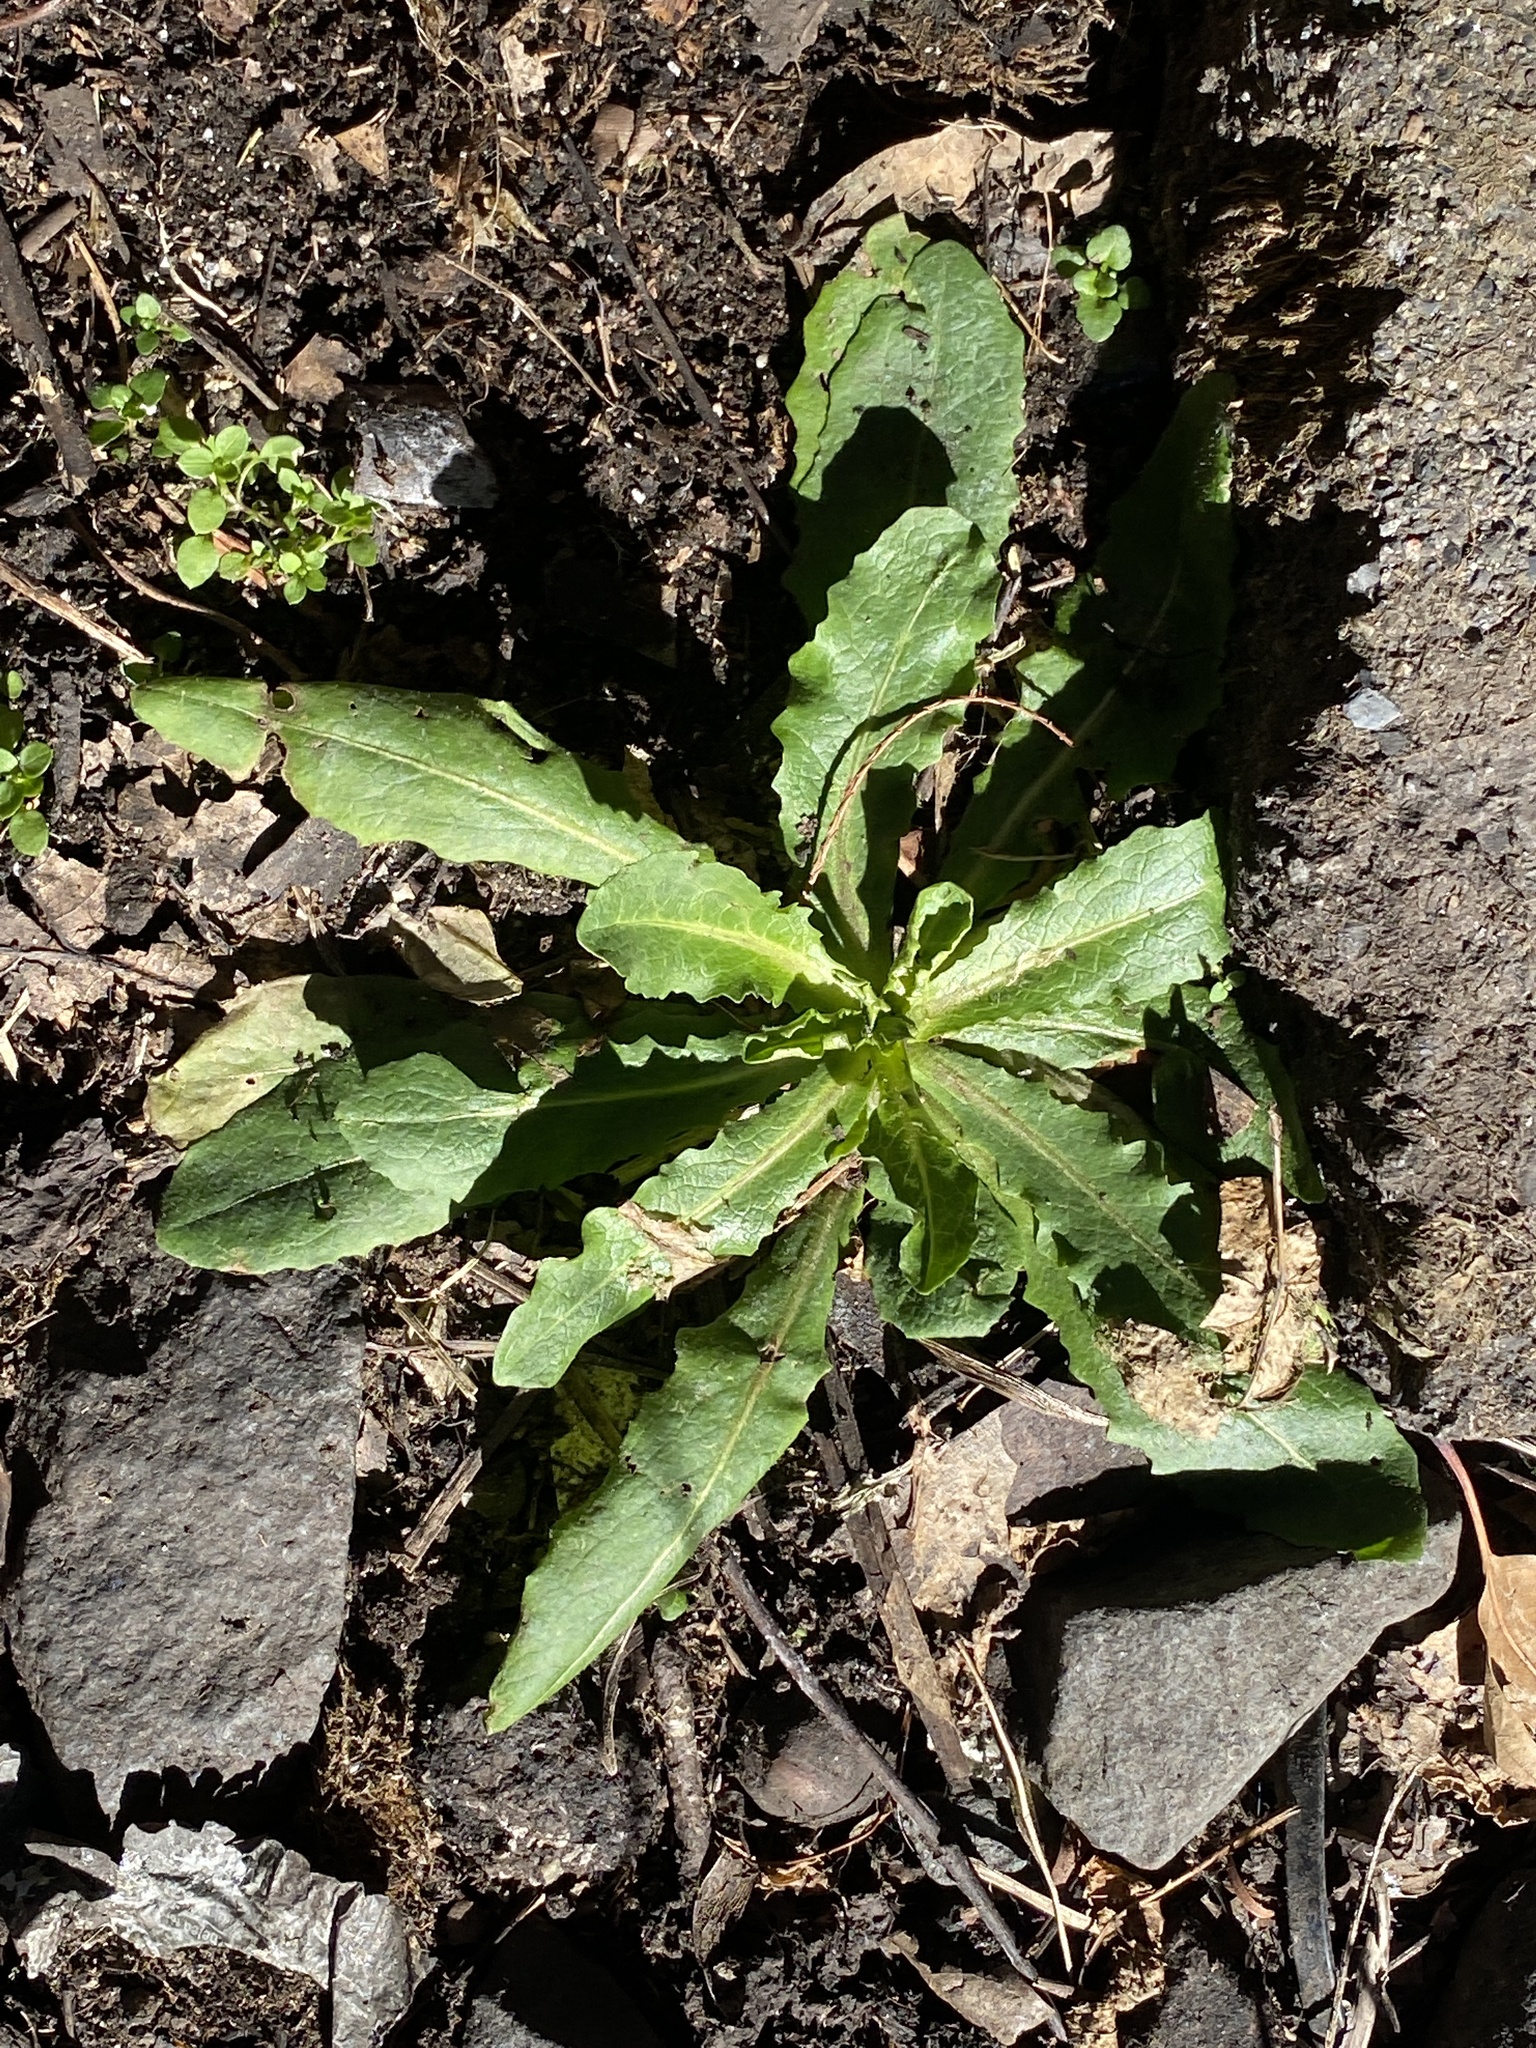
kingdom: Plantae
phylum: Tracheophyta
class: Magnoliopsida
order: Asterales
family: Asteraceae
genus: Hypochaeris
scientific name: Hypochaeris radicata
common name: Flatweed
